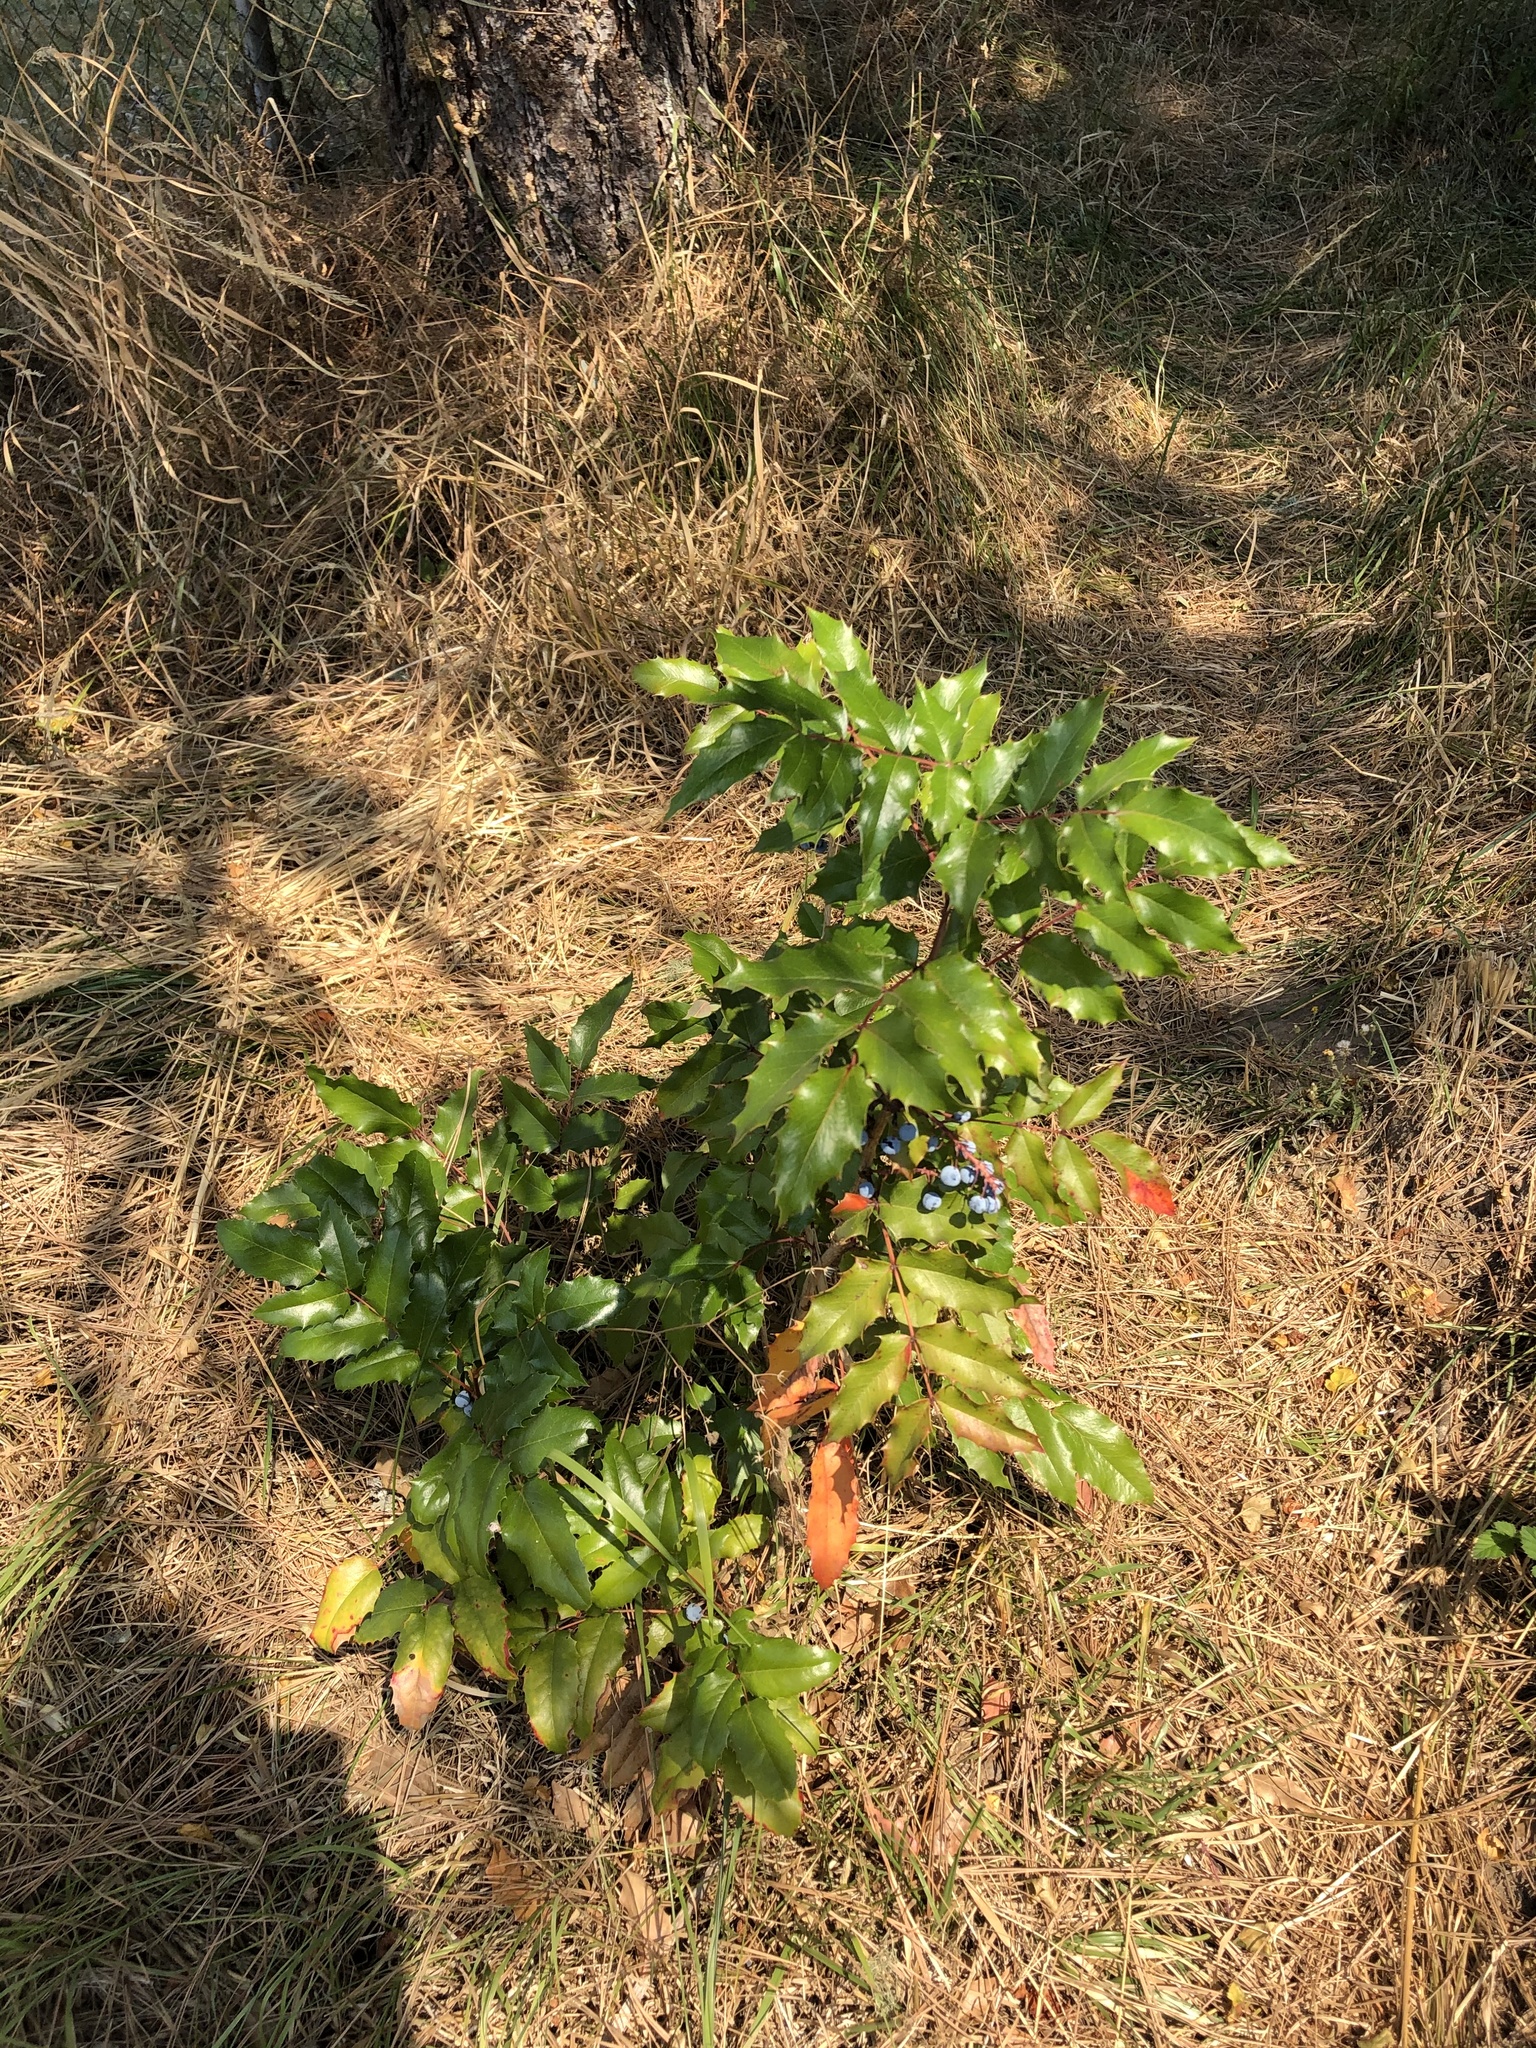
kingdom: Plantae
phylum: Tracheophyta
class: Magnoliopsida
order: Ranunculales
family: Berberidaceae
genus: Mahonia
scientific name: Mahonia aquifolium
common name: Oregon-grape
